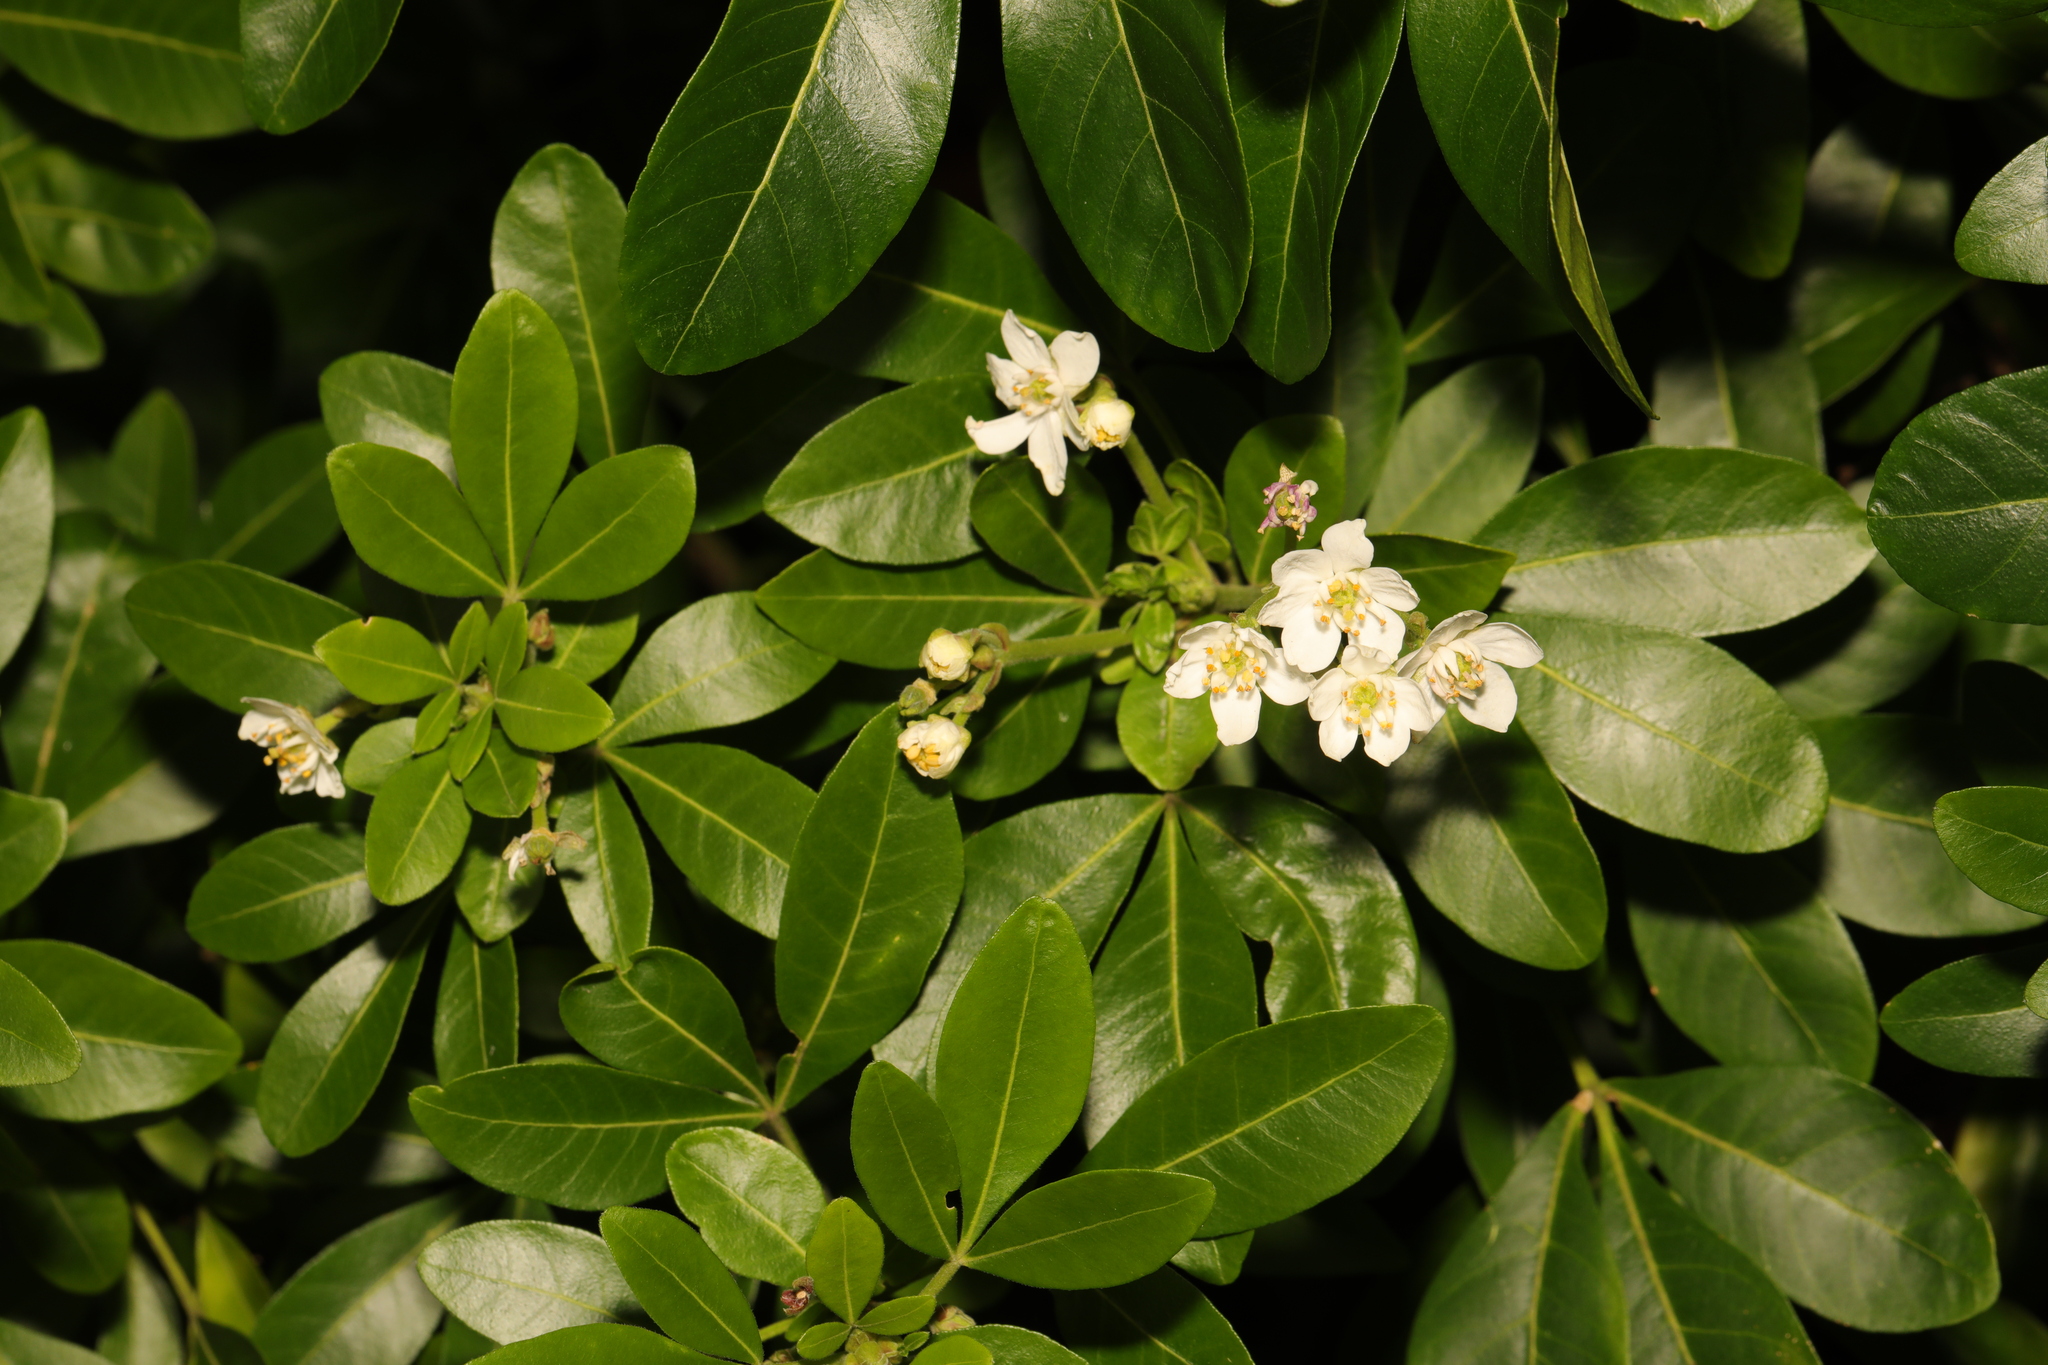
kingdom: Plantae
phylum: Tracheophyta
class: Magnoliopsida
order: Sapindales
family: Rutaceae
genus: Choisya
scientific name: Choisya ternata
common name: Mexican orange
